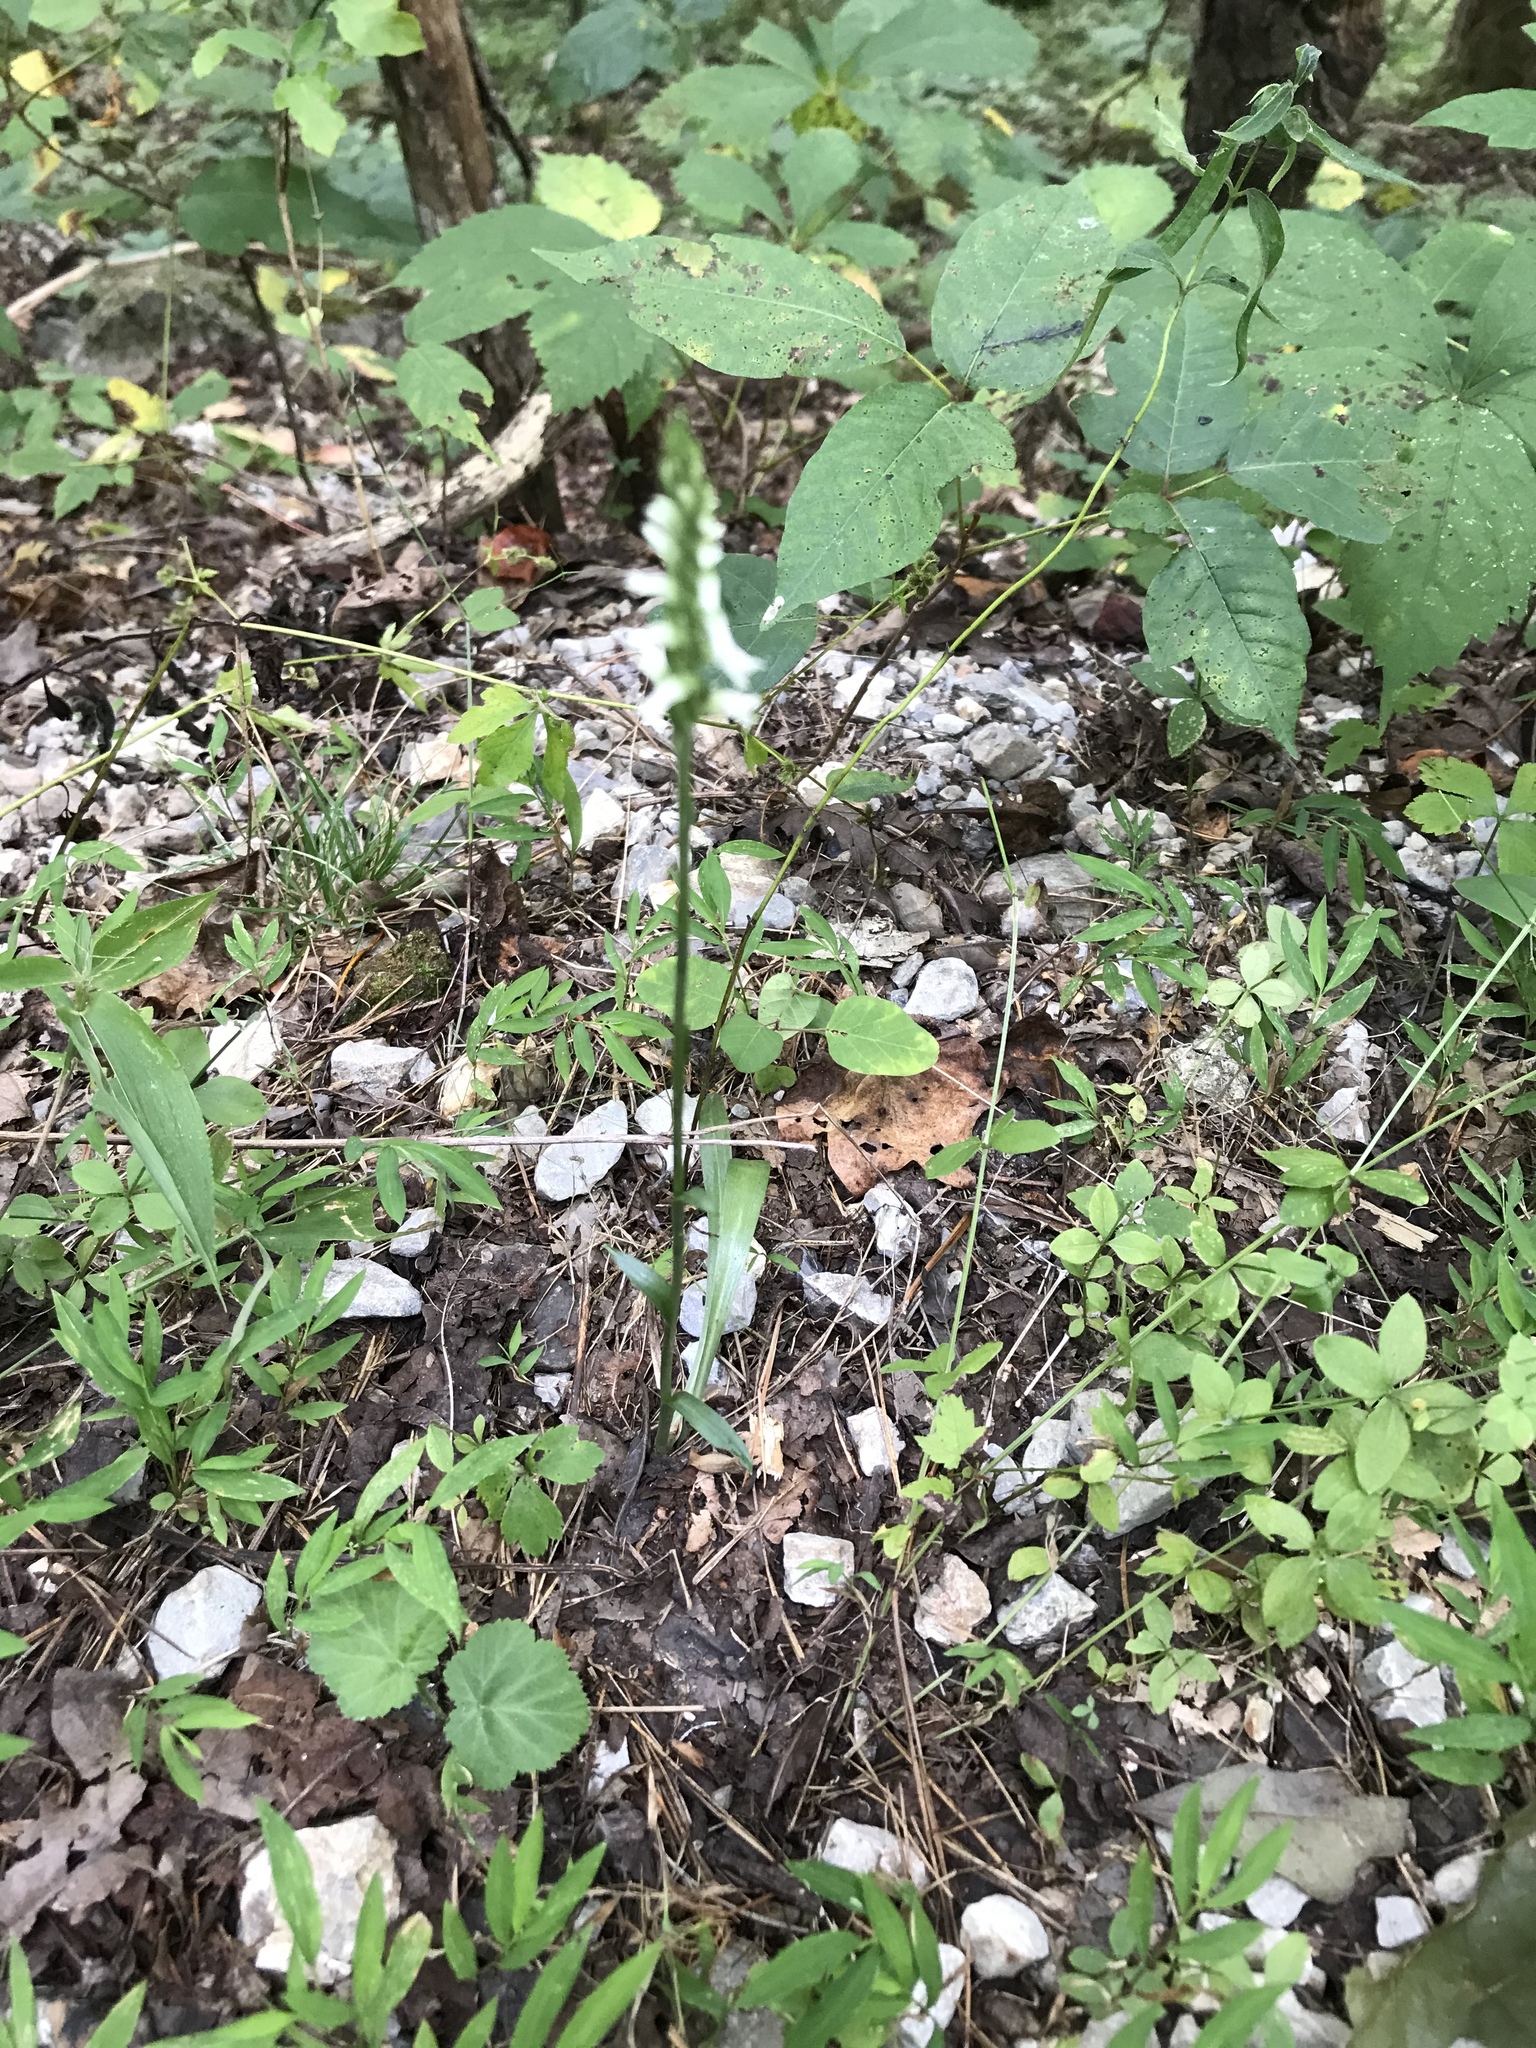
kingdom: Plantae
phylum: Tracheophyta
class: Liliopsida
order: Asparagales
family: Orchidaceae
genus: Spiranthes
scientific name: Spiranthes ovalis
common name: October ladies'-tresses
